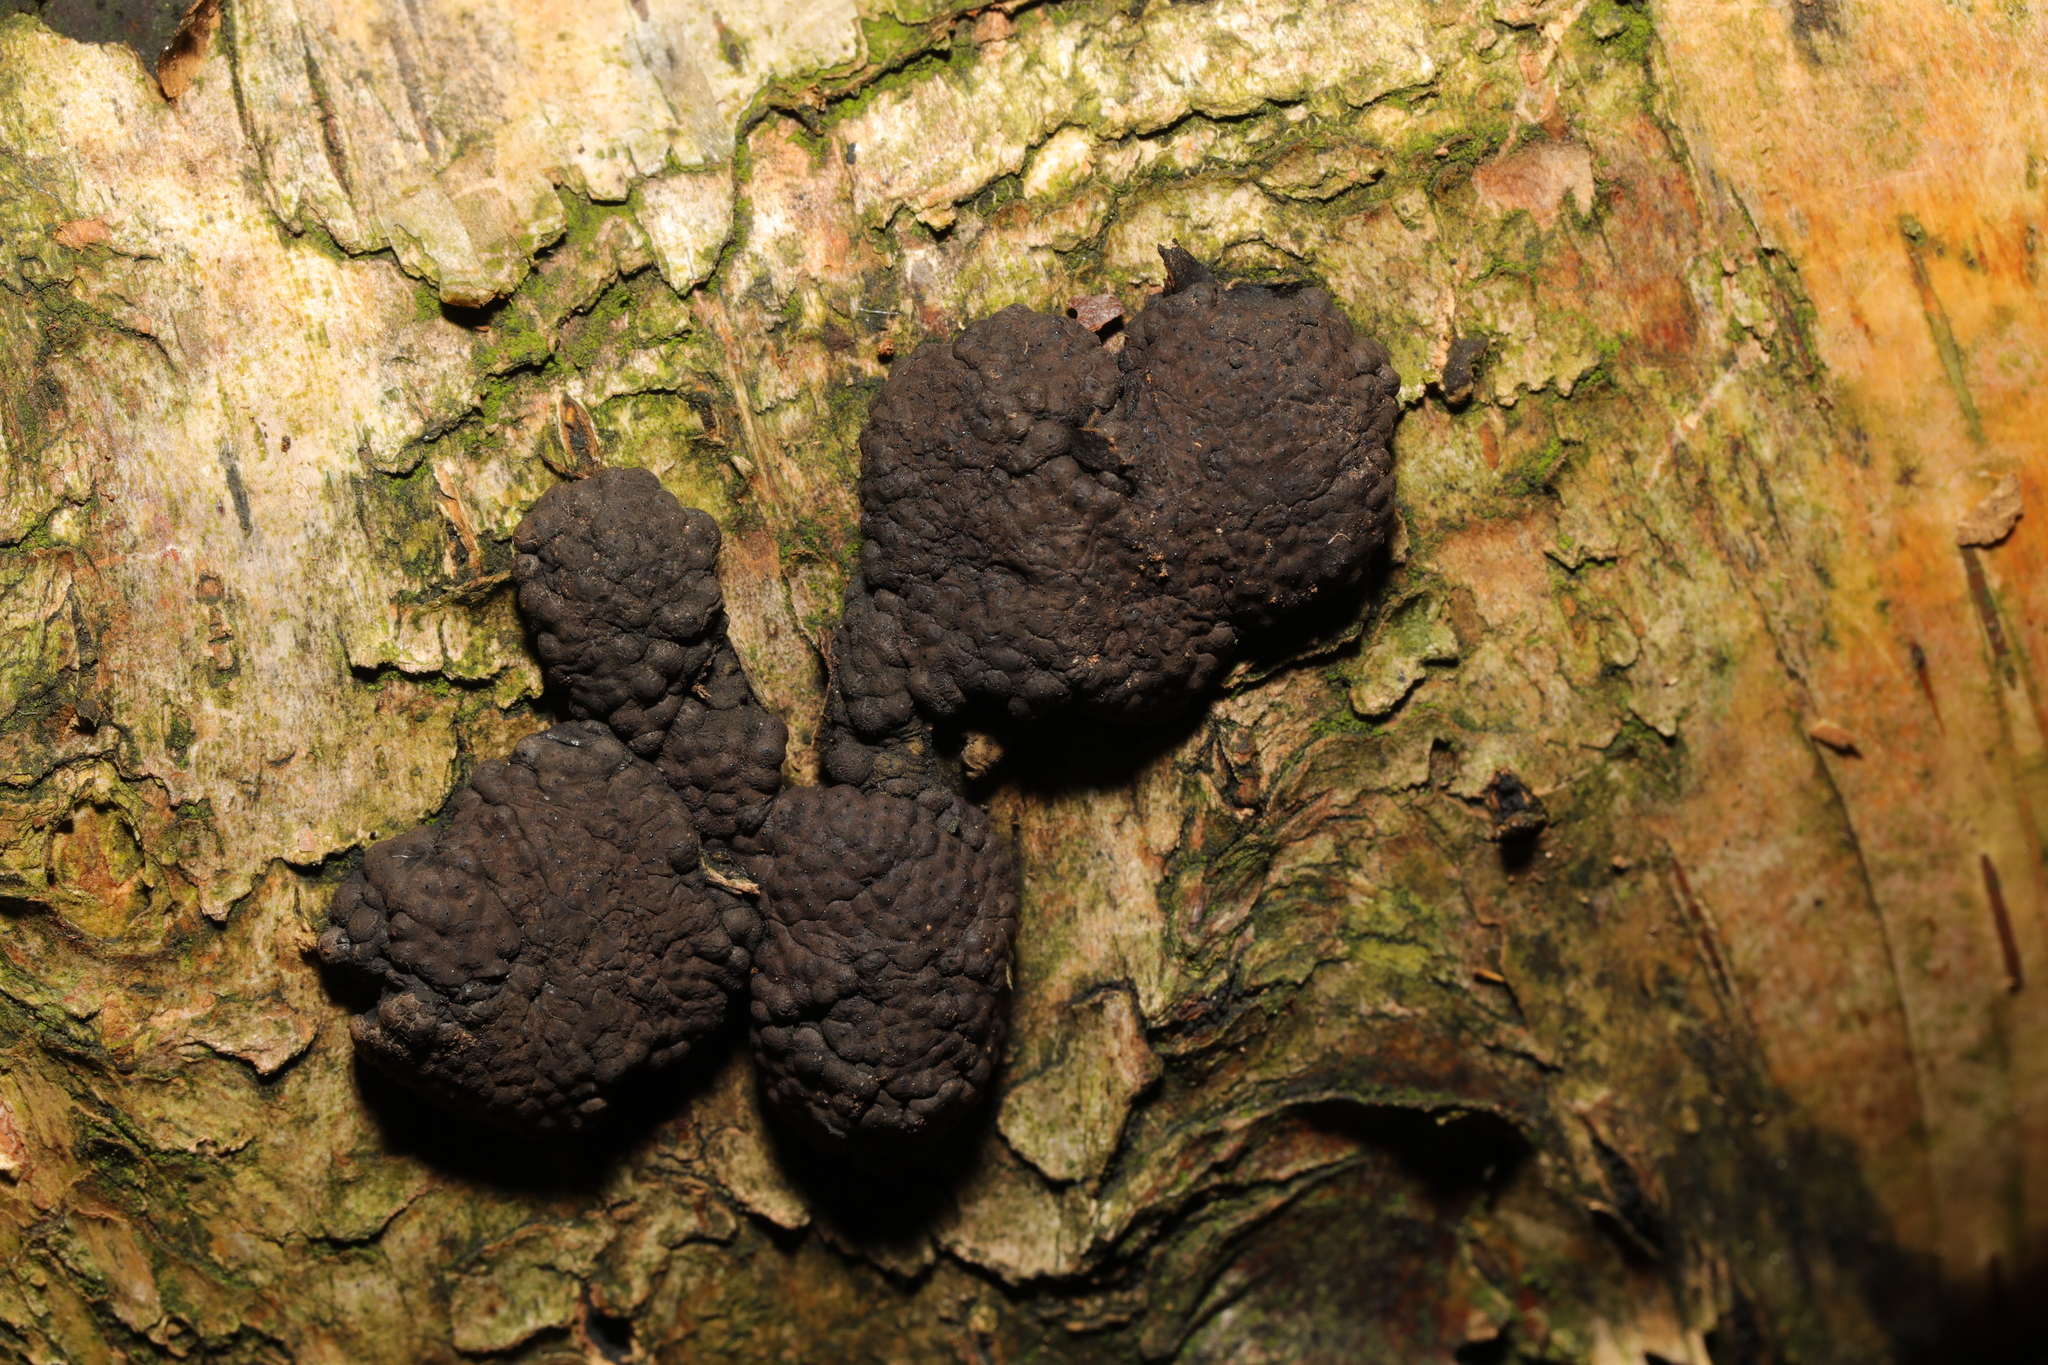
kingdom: Fungi
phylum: Ascomycota
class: Sordariomycetes
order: Xylariales
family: Hypoxylaceae
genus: Jackrogersella
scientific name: Jackrogersella multiformis
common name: Birch woodwart
